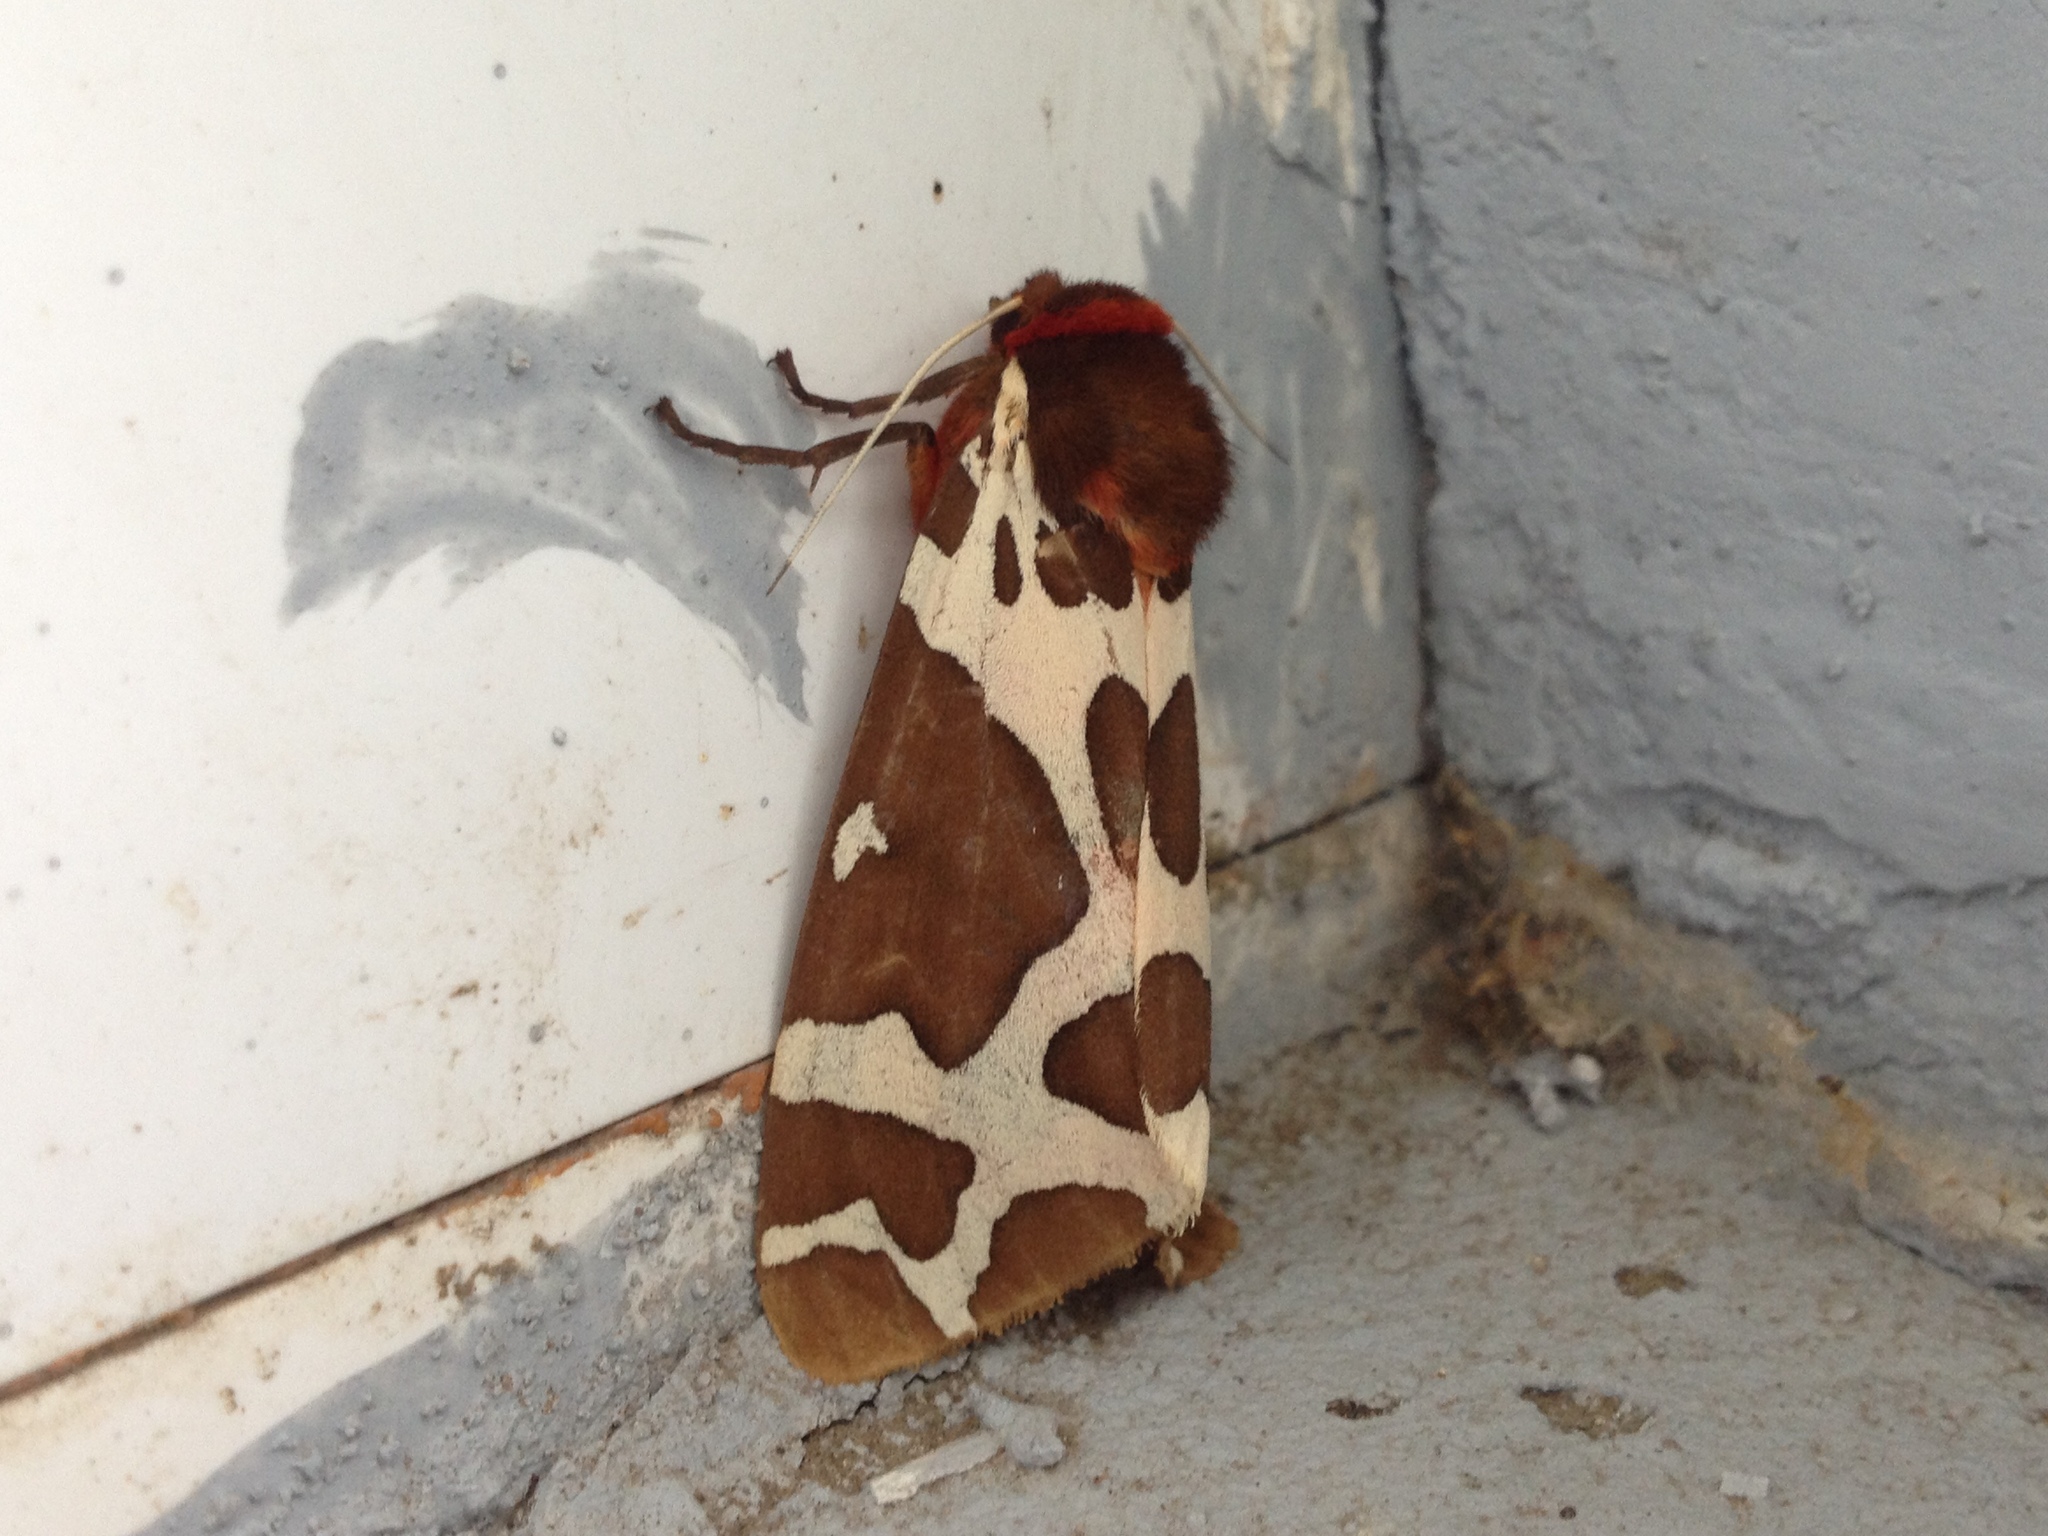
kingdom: Animalia
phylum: Arthropoda
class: Insecta
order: Lepidoptera
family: Erebidae
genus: Arctia
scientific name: Arctia caja
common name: Garden tiger
